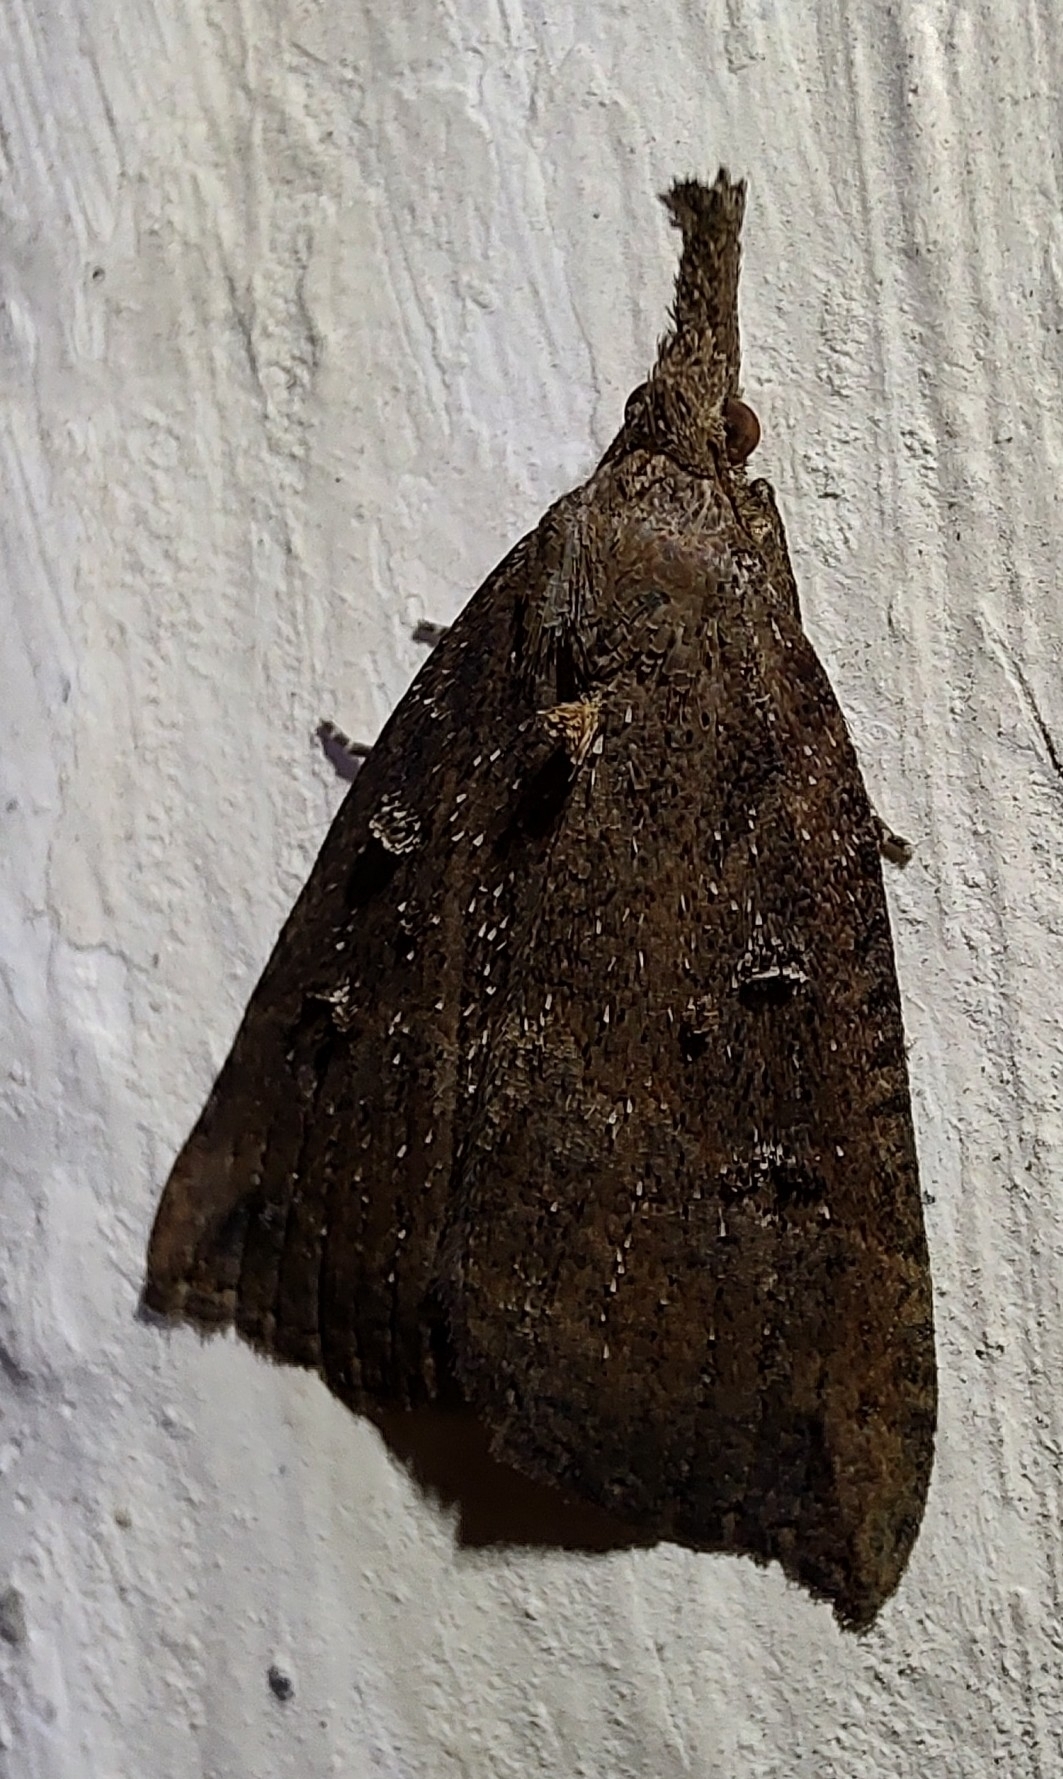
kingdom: Animalia
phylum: Arthropoda
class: Insecta
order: Lepidoptera
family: Erebidae
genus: Hypena
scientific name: Hypena rostralis
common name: Buttoned snout
